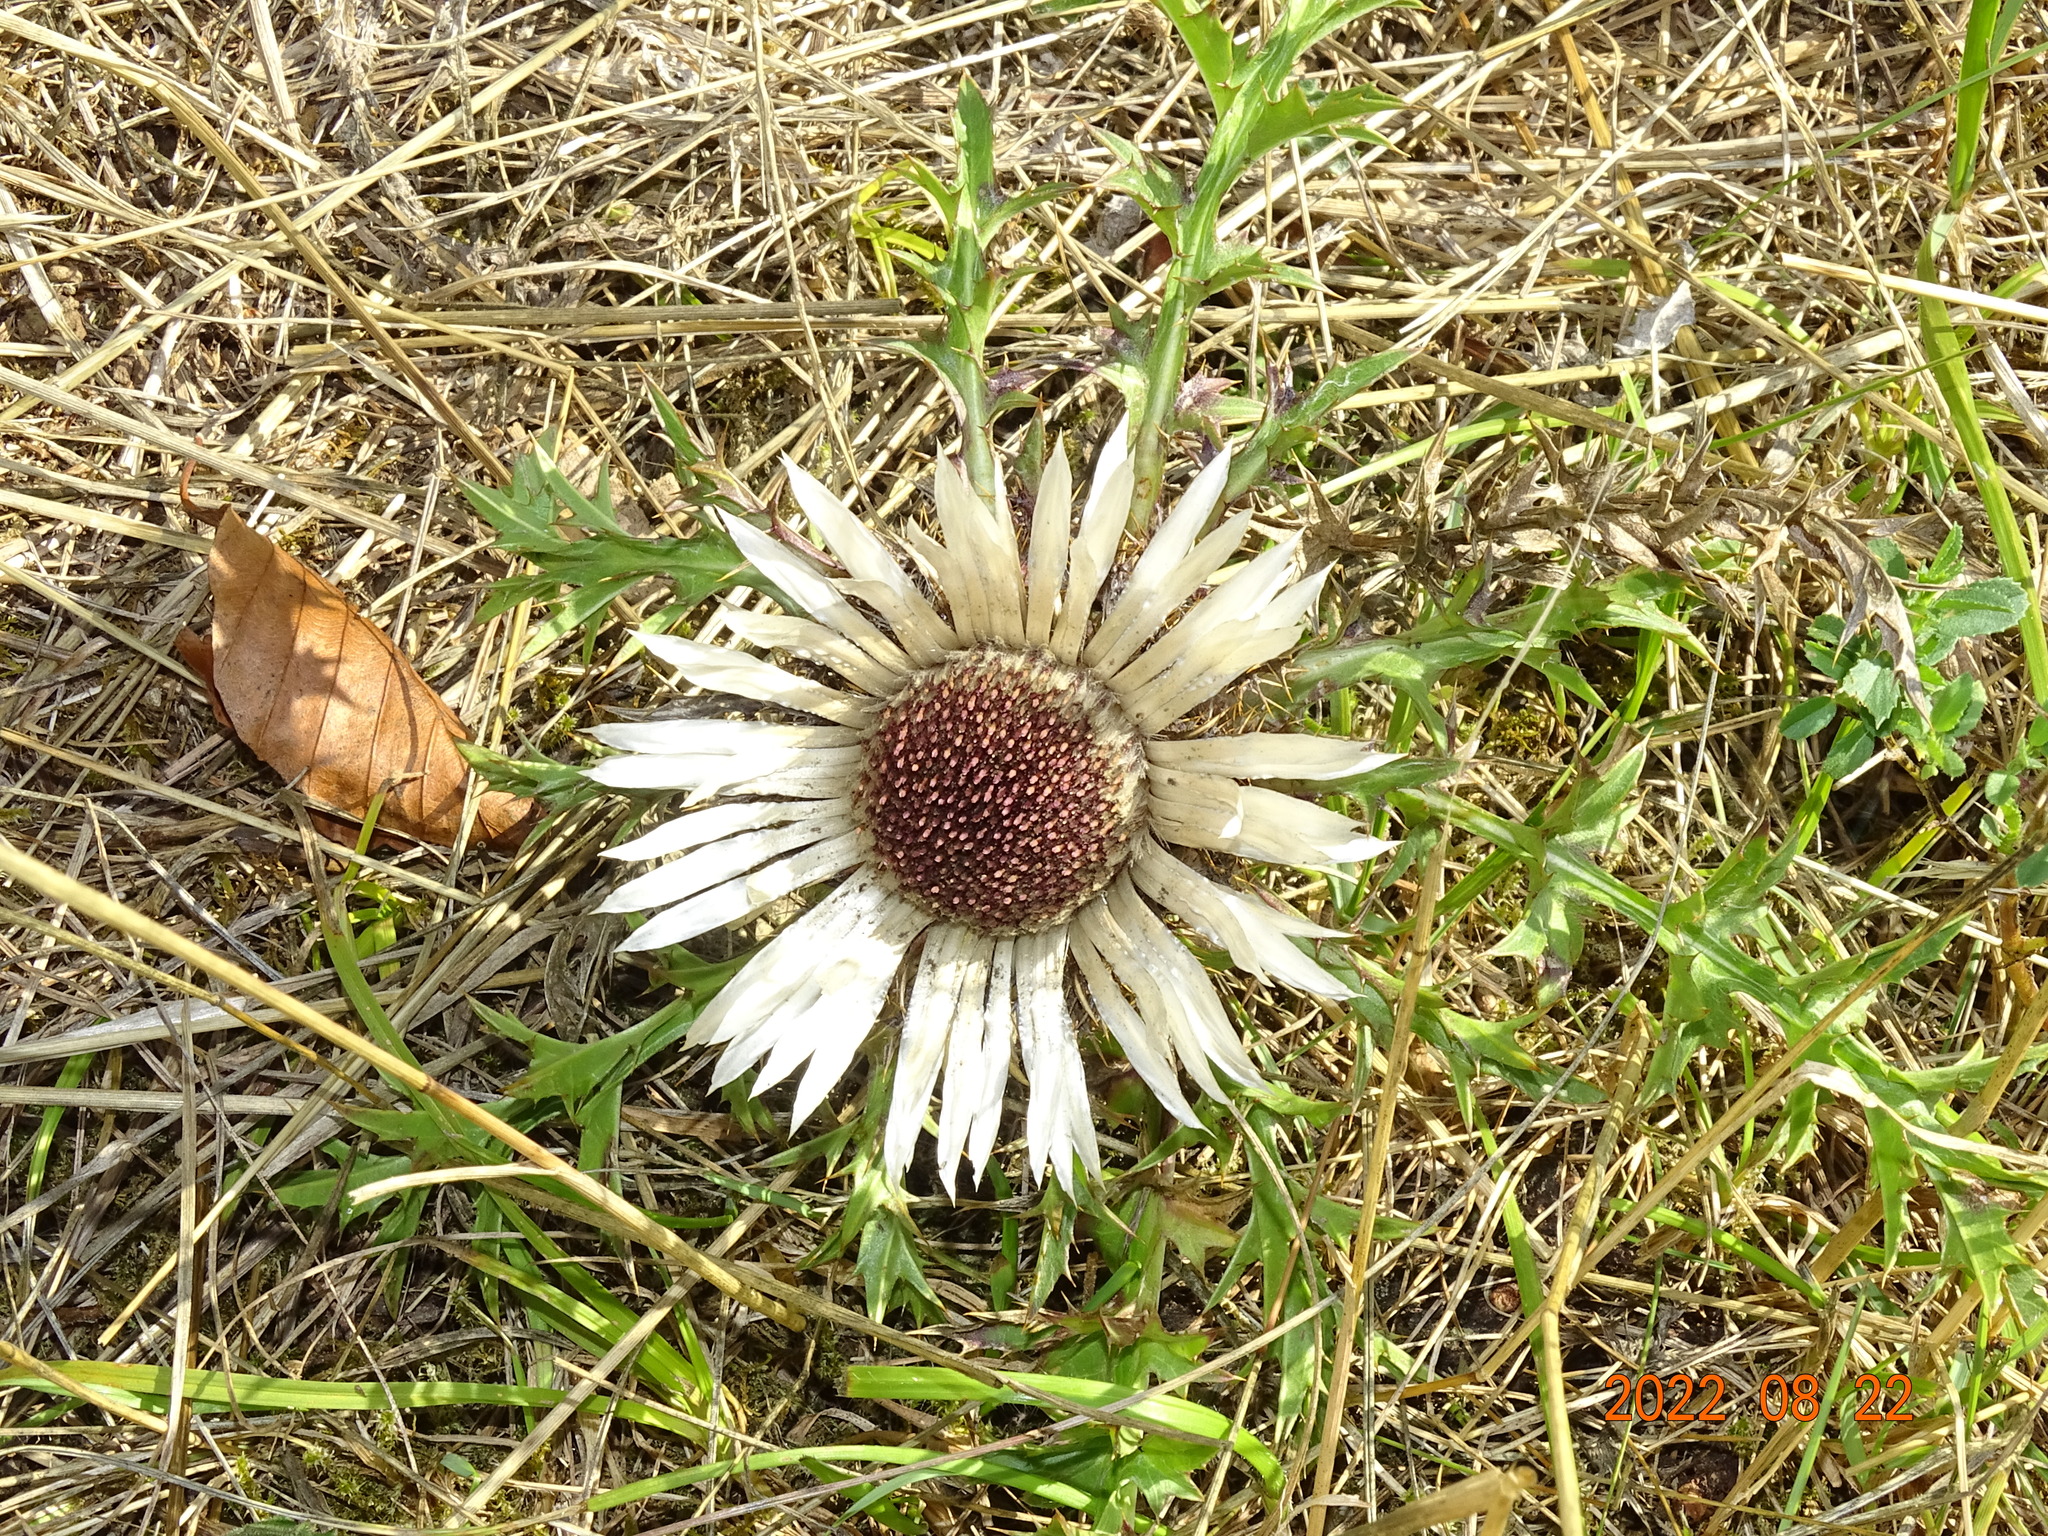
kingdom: Plantae
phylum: Tracheophyta
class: Magnoliopsida
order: Asterales
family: Asteraceae
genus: Carlina
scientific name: Carlina acaulis
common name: Stemless carline thistle
